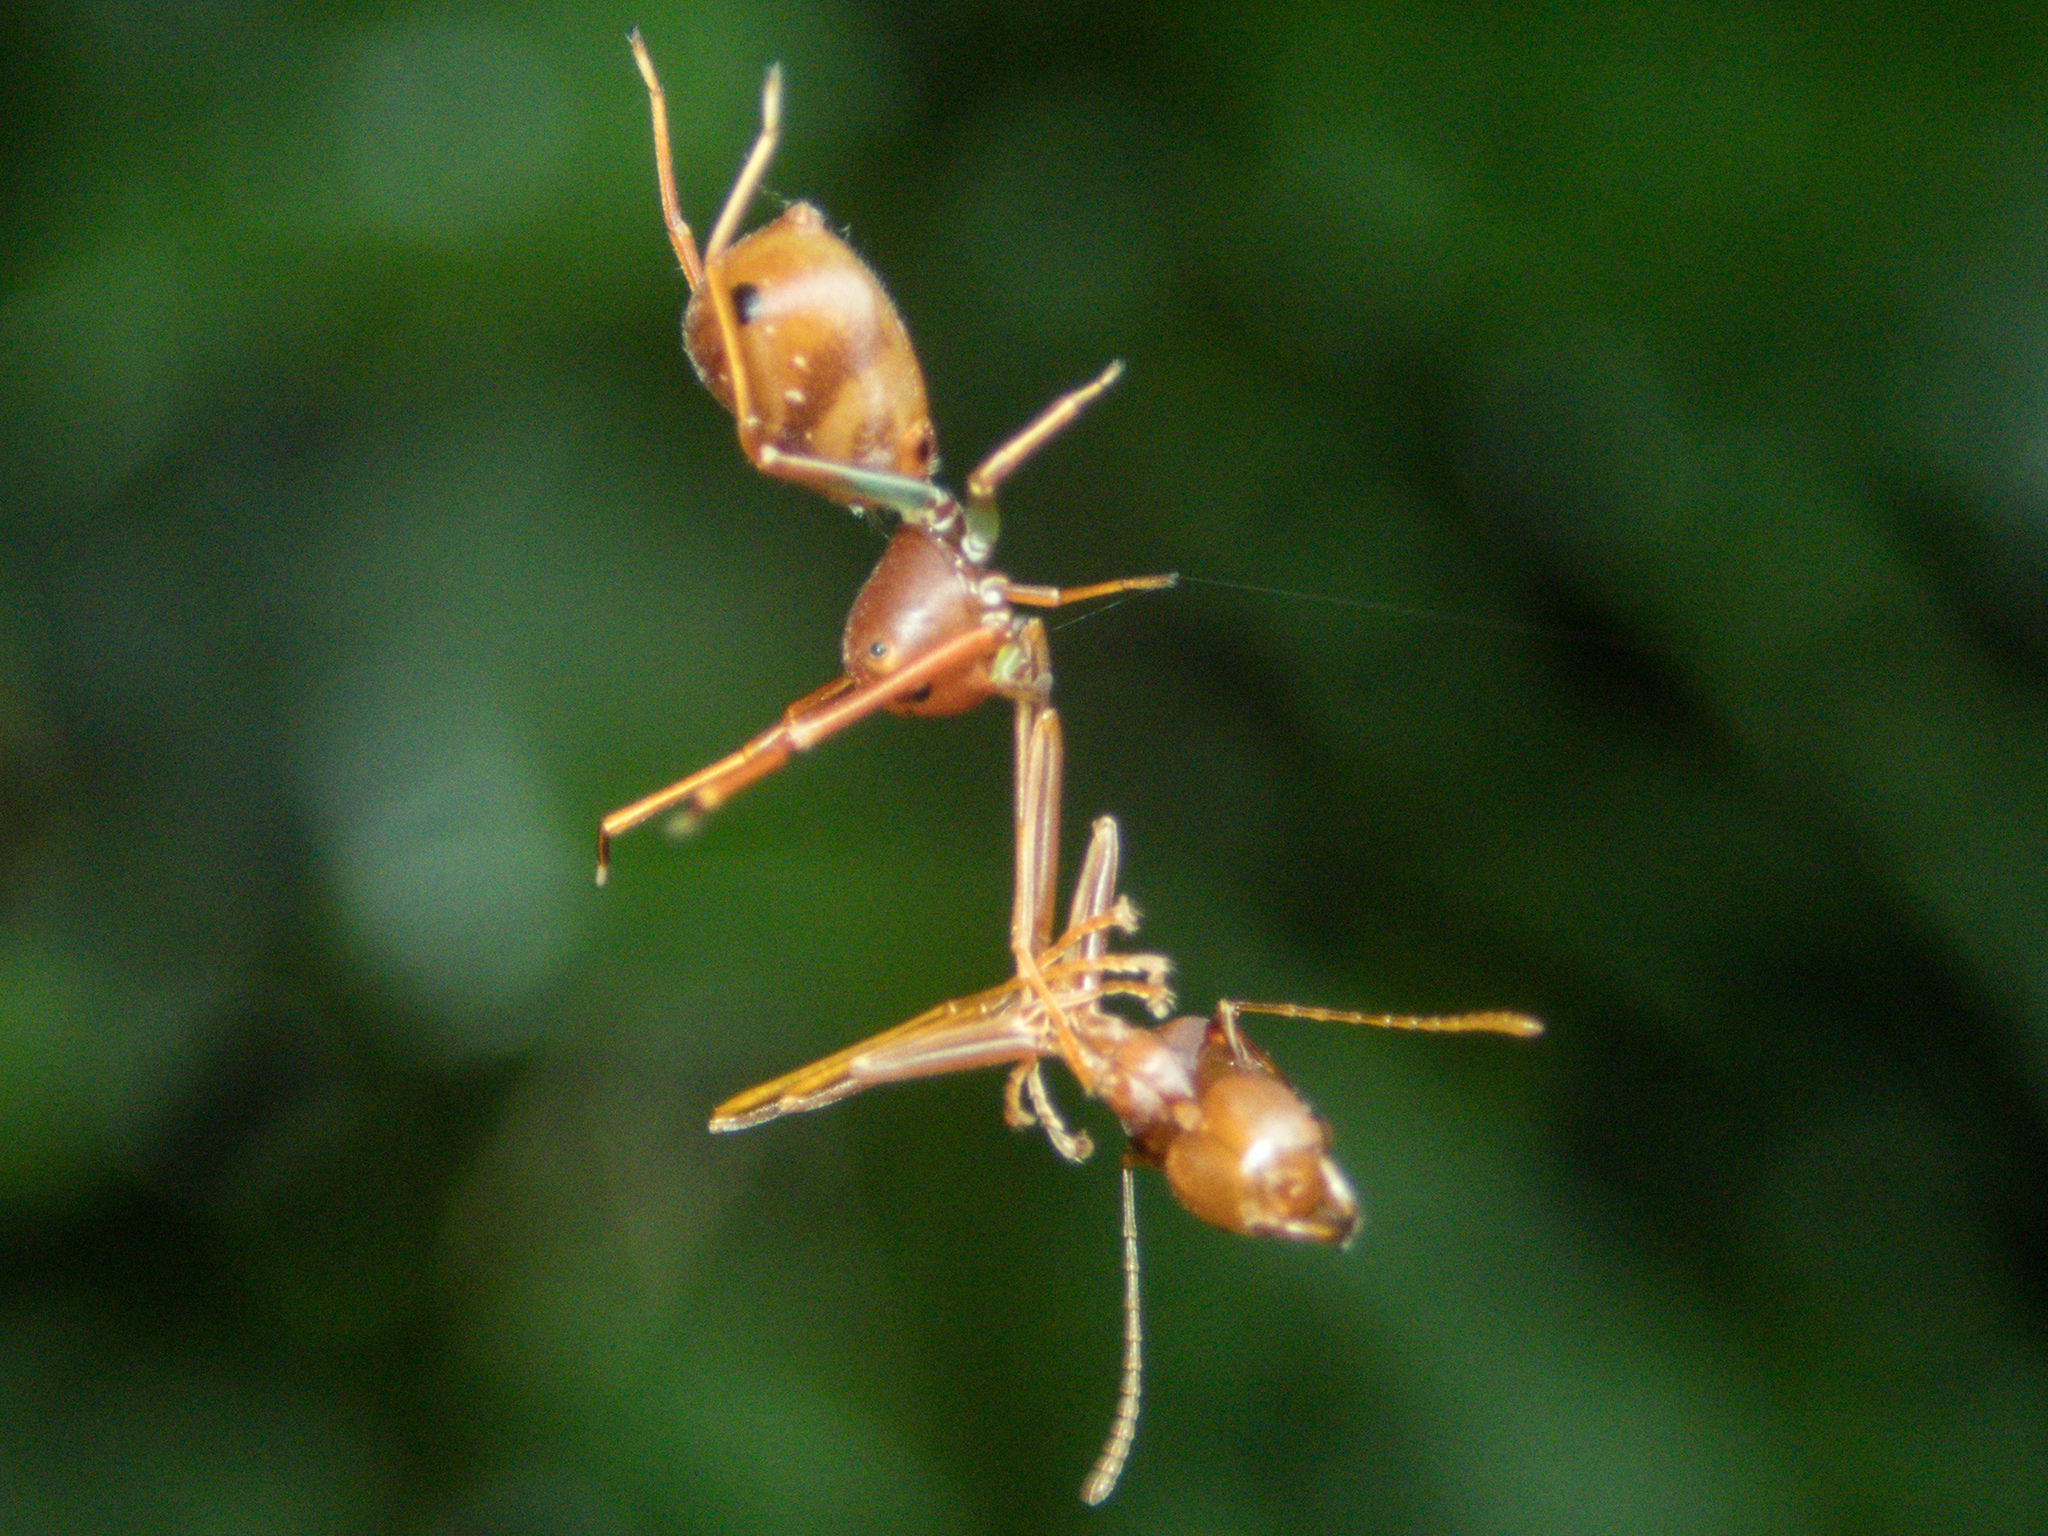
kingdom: Animalia
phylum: Arthropoda
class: Arachnida
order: Araneae
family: Thomisidae
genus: Amyciaea
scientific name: Amyciaea forticeps
